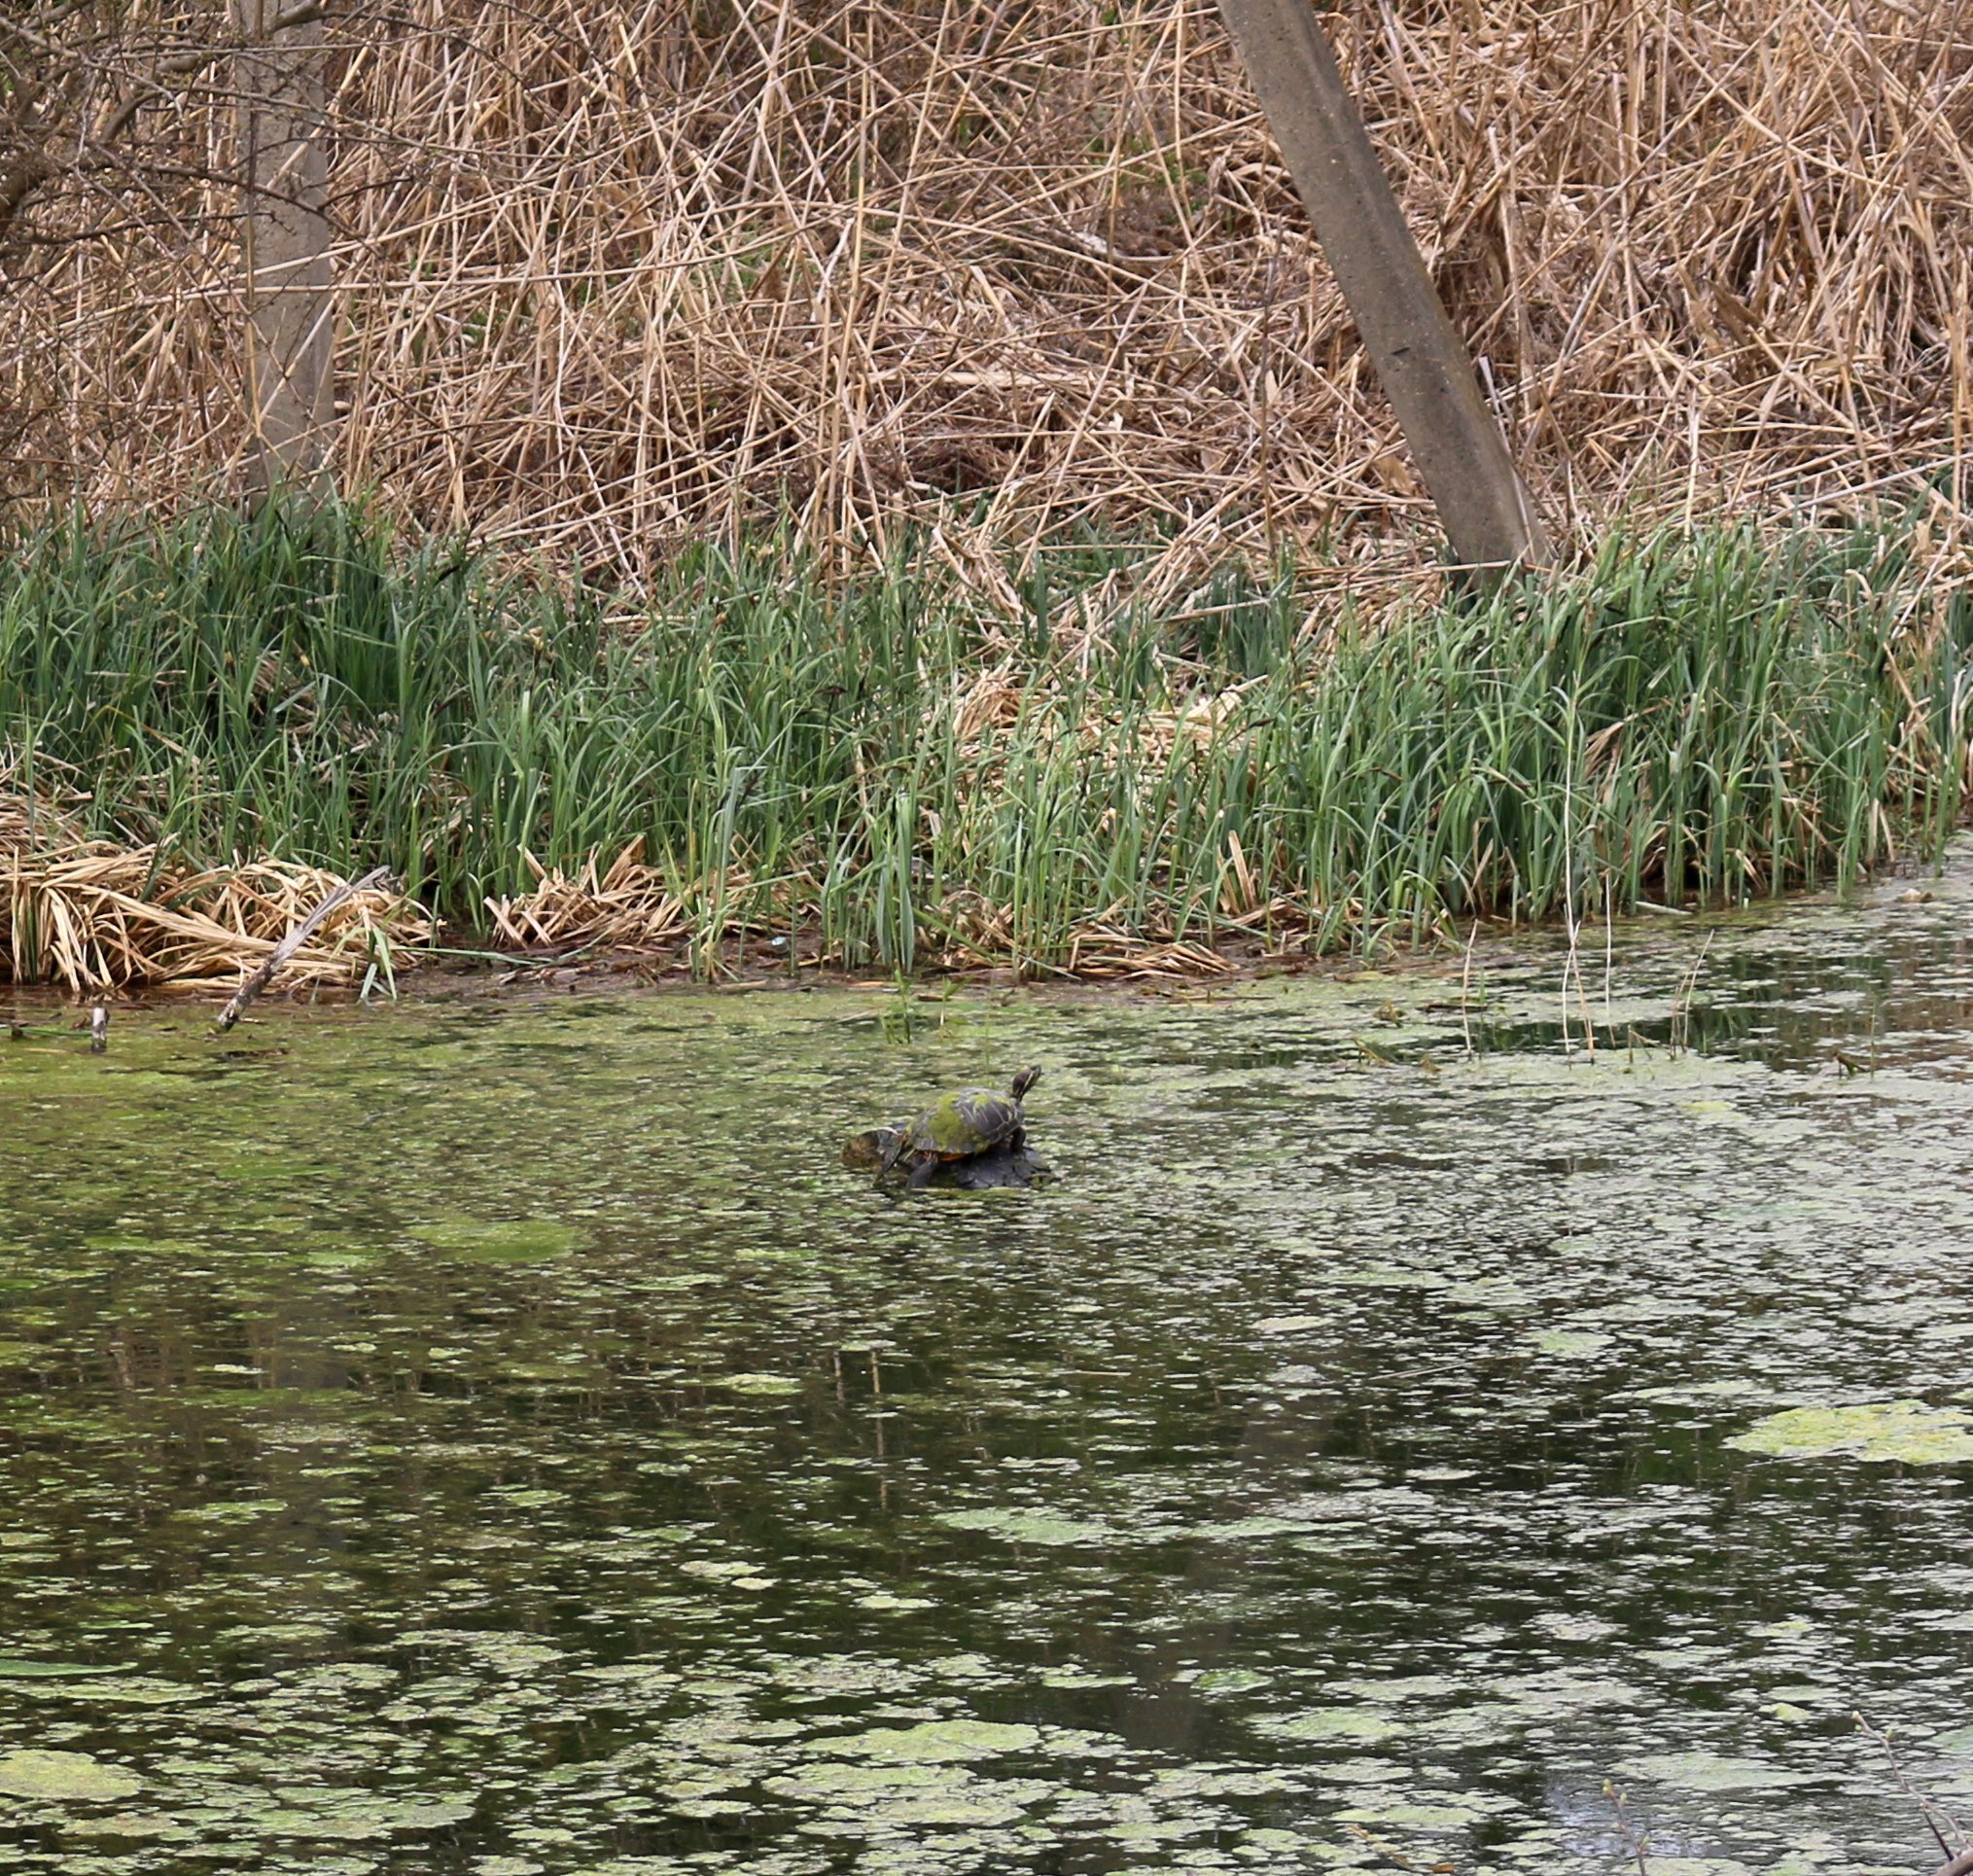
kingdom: Animalia
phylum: Chordata
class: Testudines
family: Emydidae
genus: Trachemys
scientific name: Trachemys scripta
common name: Slider
